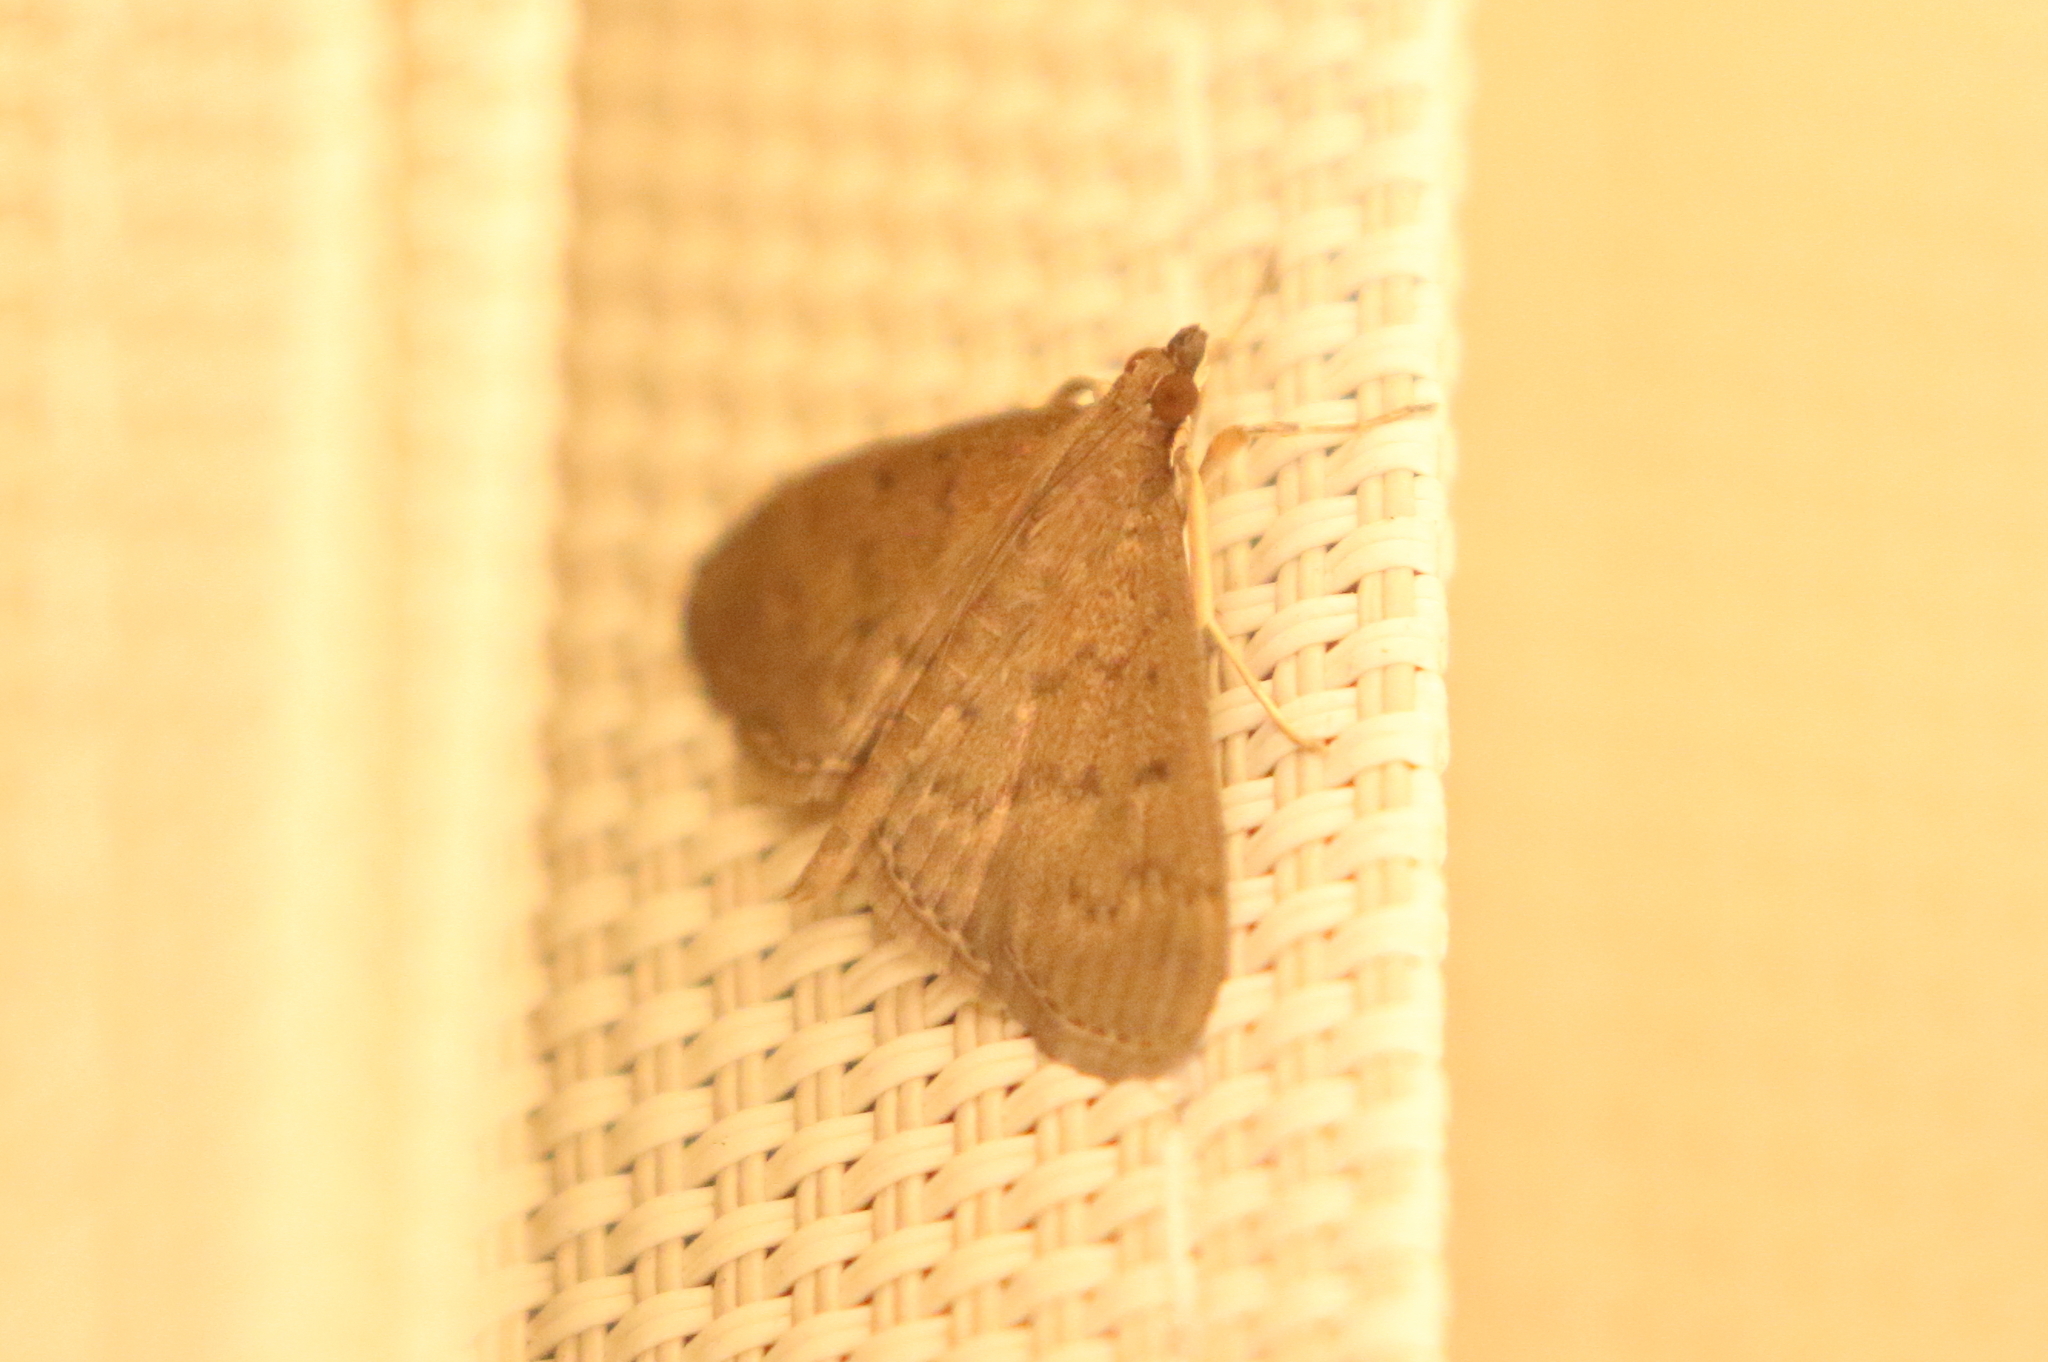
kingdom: Animalia
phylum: Arthropoda
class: Insecta
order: Lepidoptera
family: Crambidae
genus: Herpetogramma
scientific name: Herpetogramma licarsisalis
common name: Grass webworm
